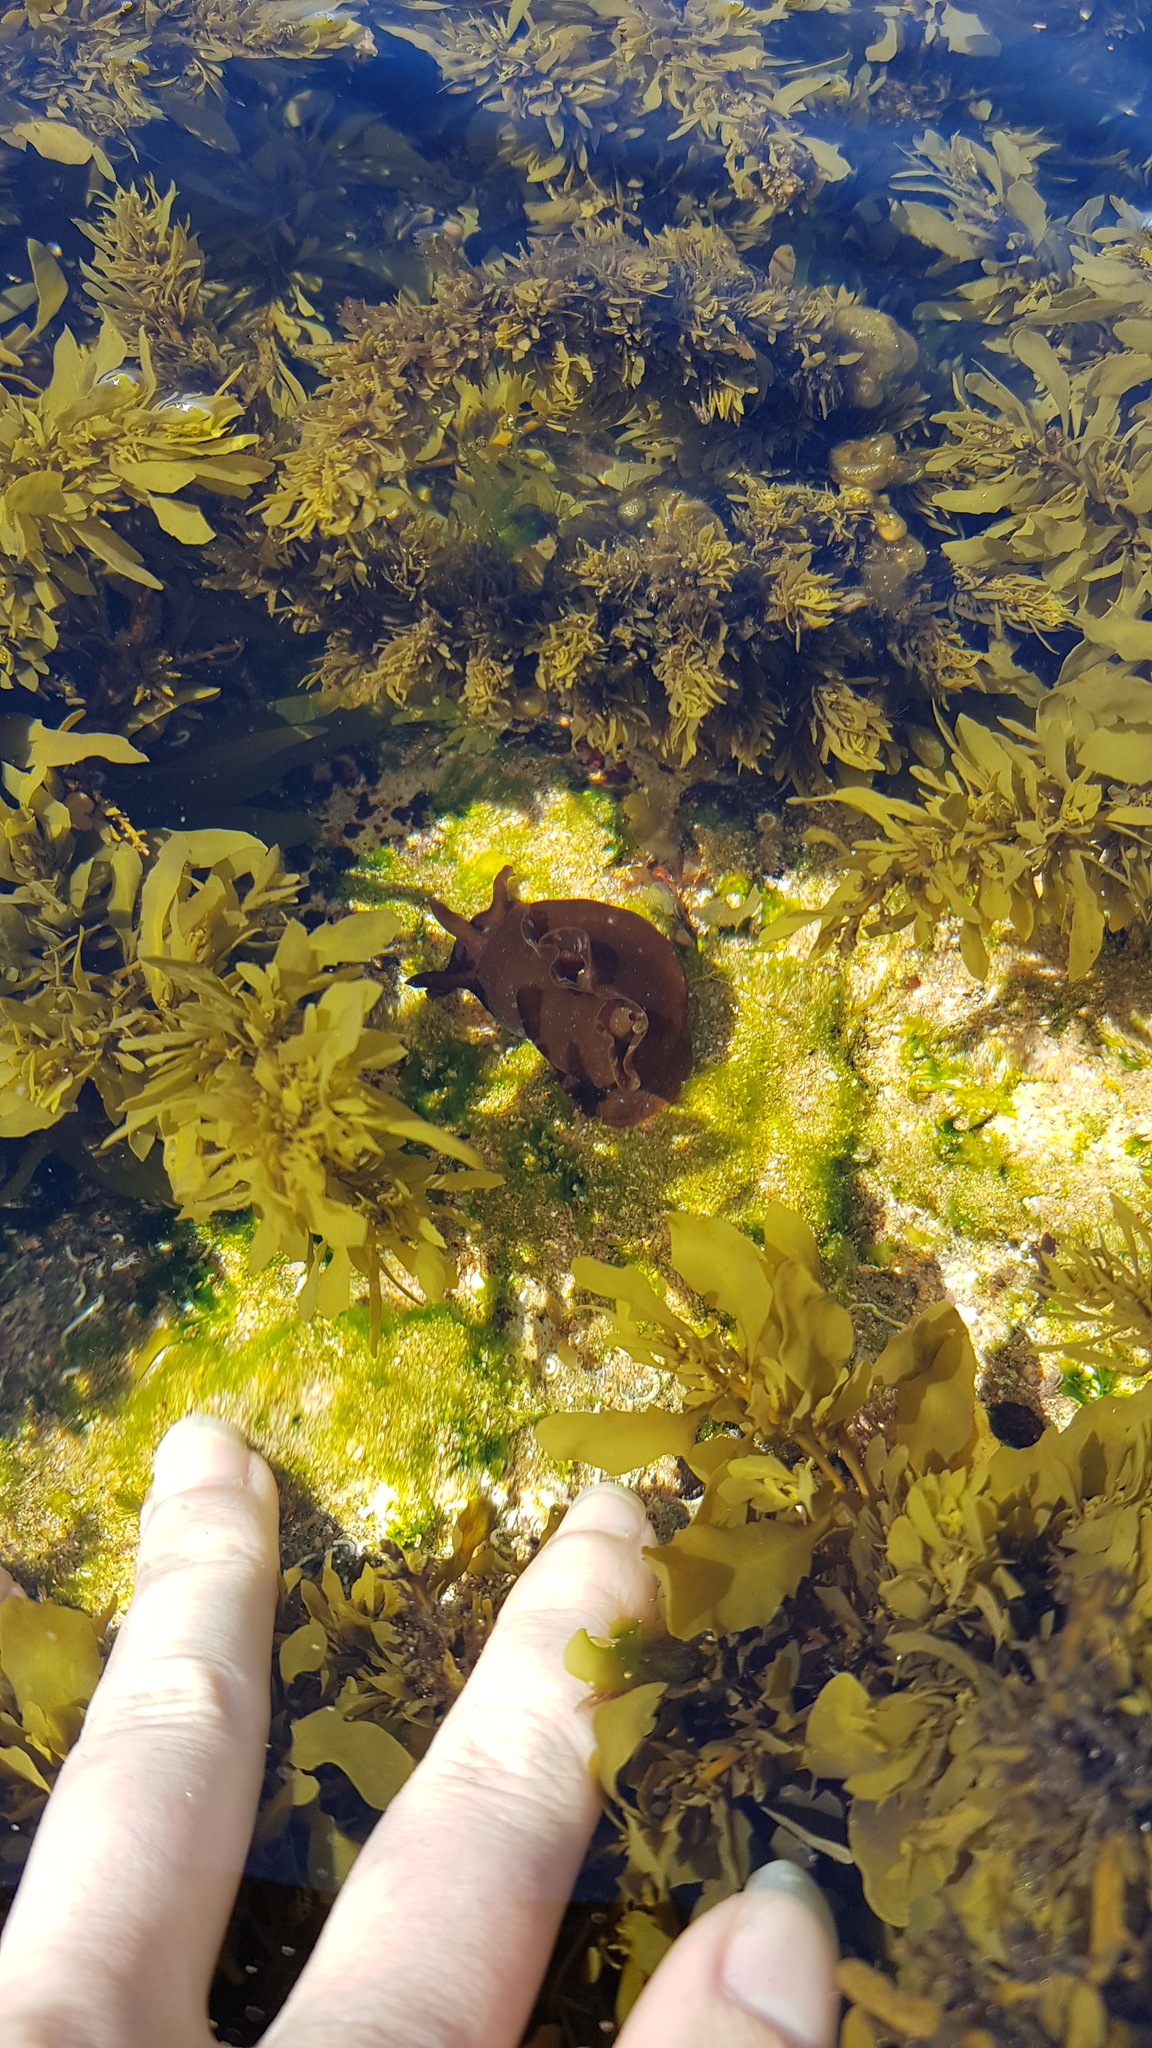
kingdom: Animalia
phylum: Mollusca
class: Gastropoda
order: Aplysiida
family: Aplysiidae
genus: Aplysia
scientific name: Aplysia juliana
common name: Walking sea hare
